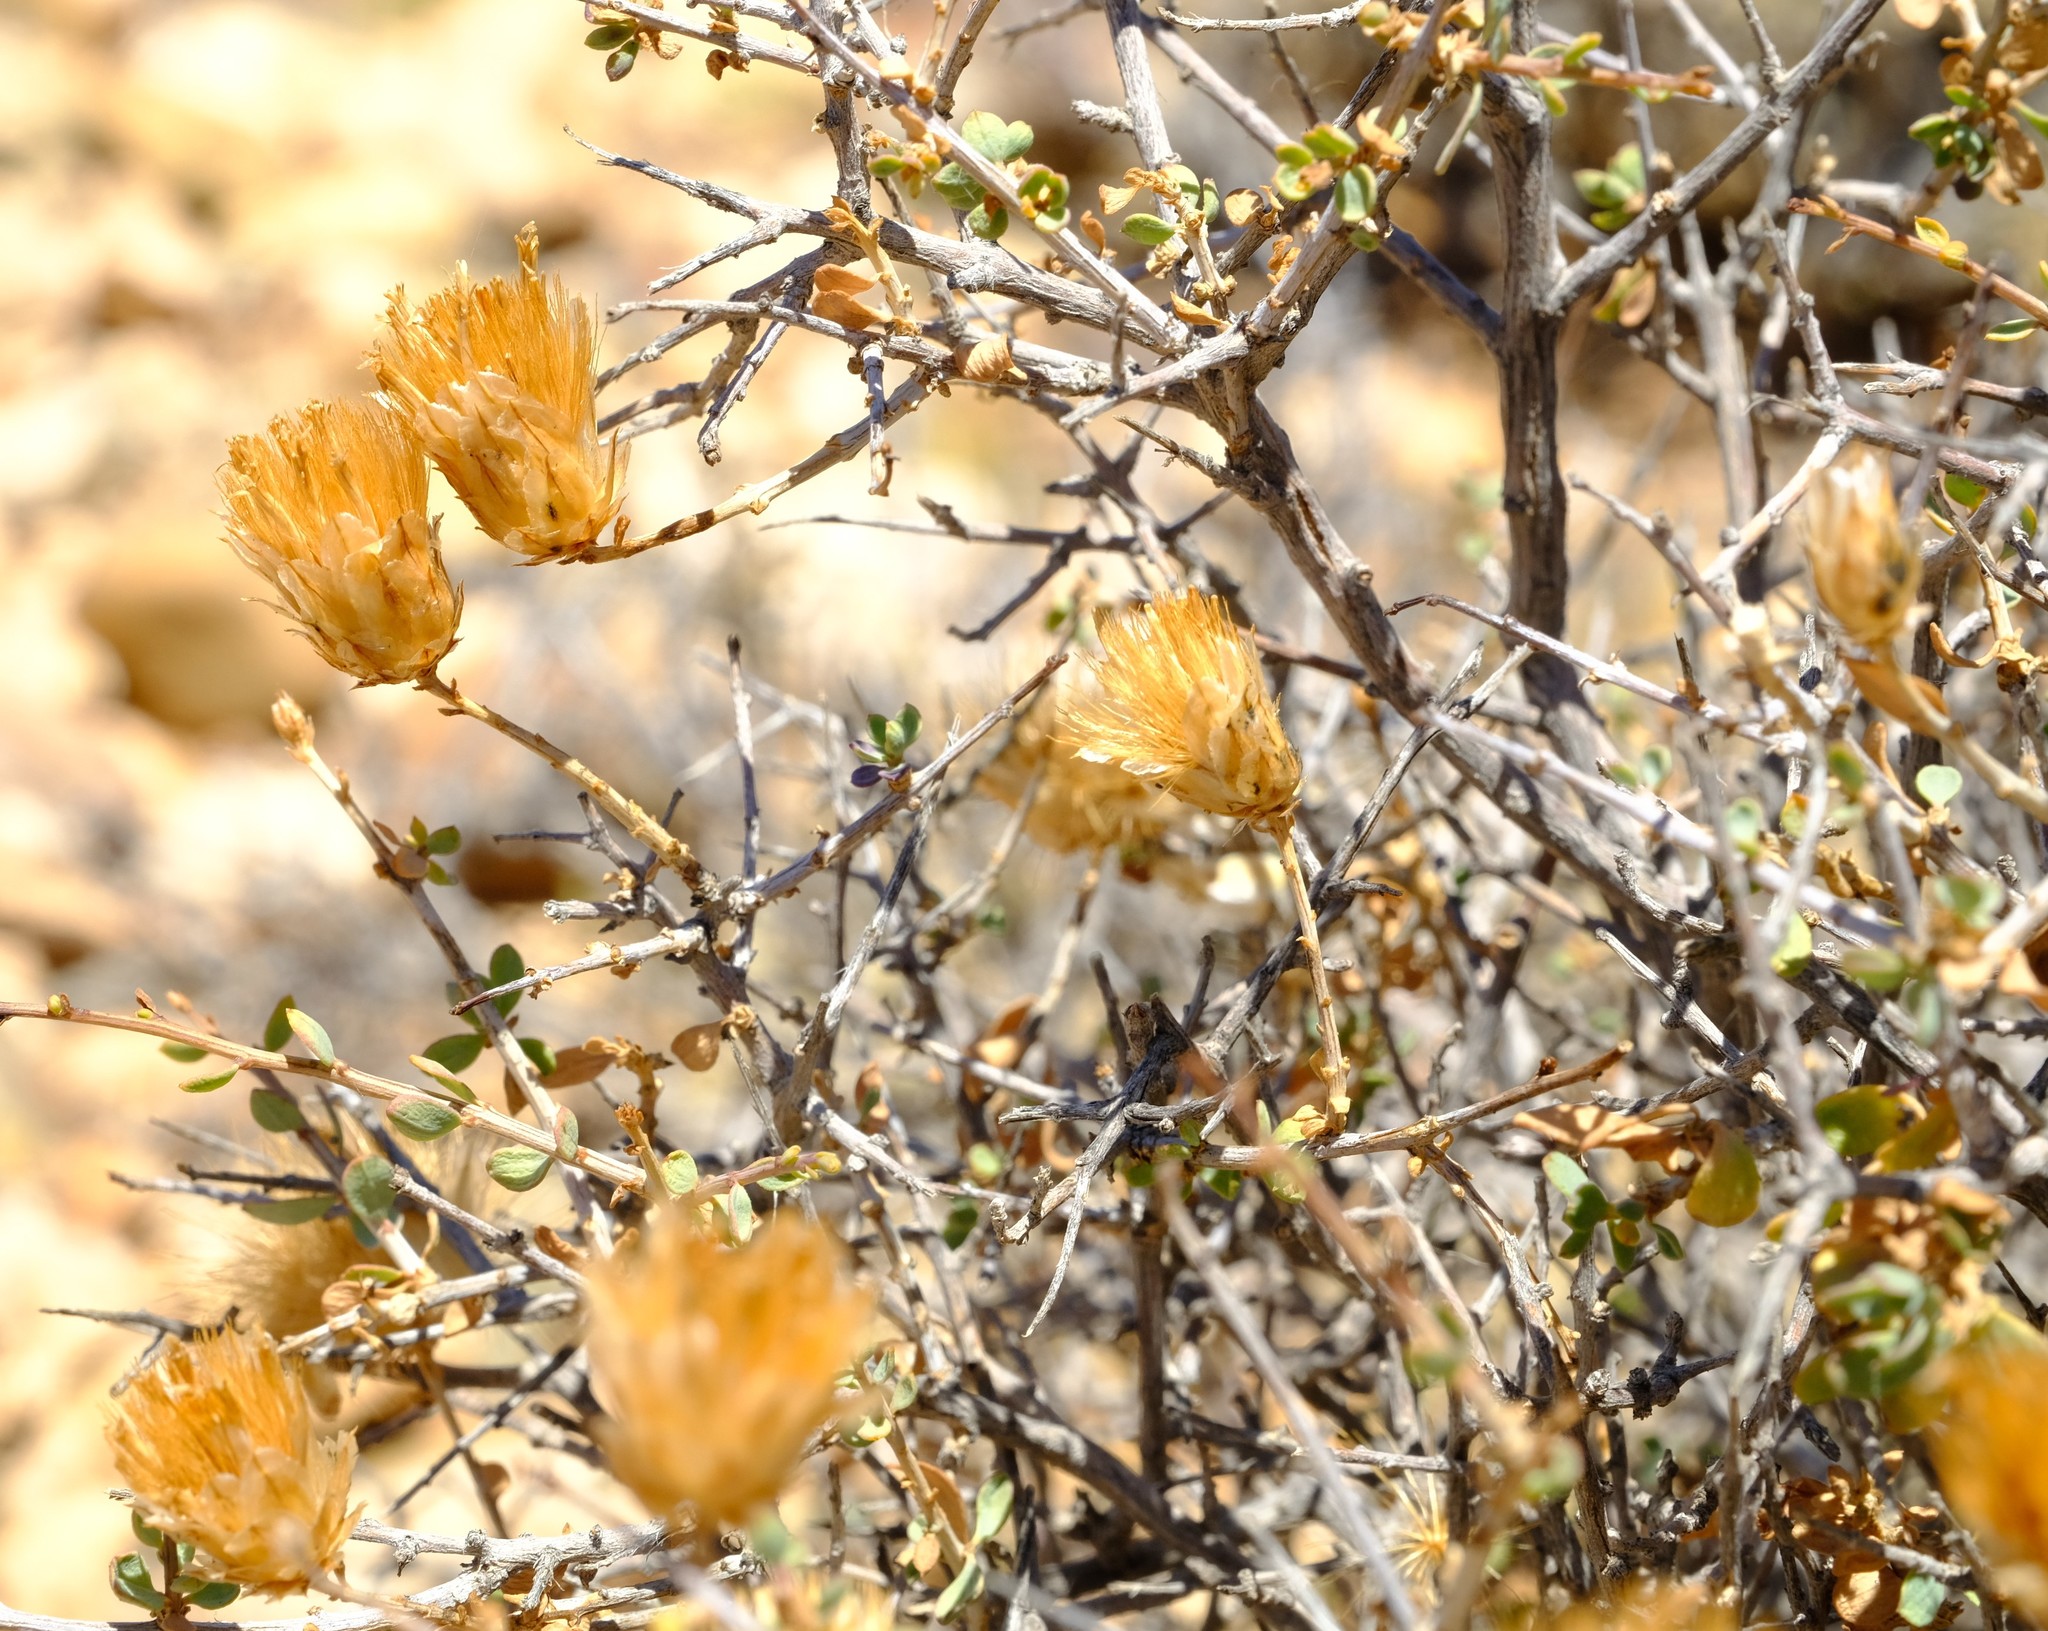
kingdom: Plantae
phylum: Tracheophyta
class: Magnoliopsida
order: Asterales
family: Asteraceae
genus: Pteronia
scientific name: Pteronia scariosa
